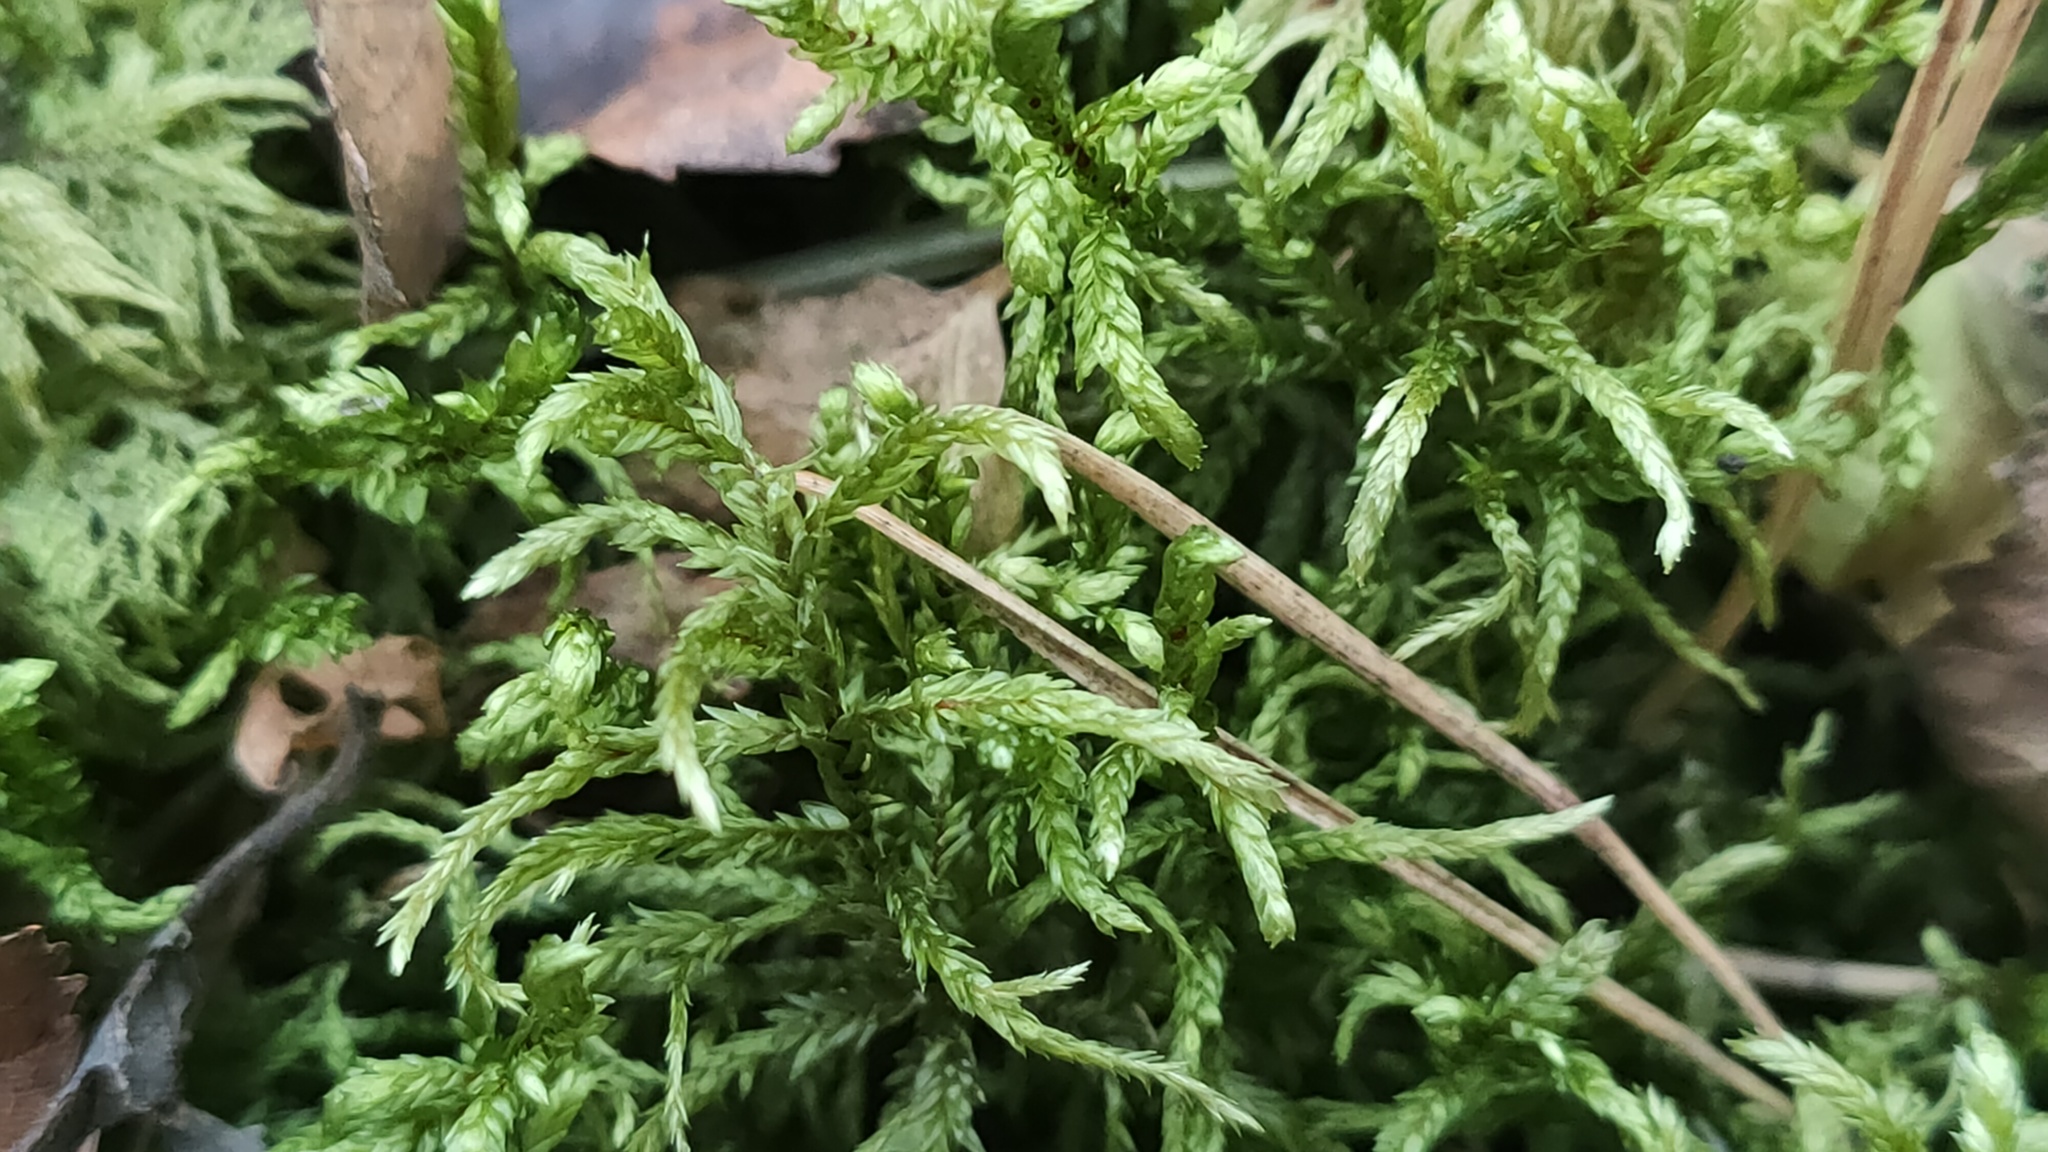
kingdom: Plantae
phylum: Bryophyta
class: Bryopsida
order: Hypnales
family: Hylocomiaceae
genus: Pleurozium
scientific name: Pleurozium schreberi
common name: Red-stemmed feather moss
